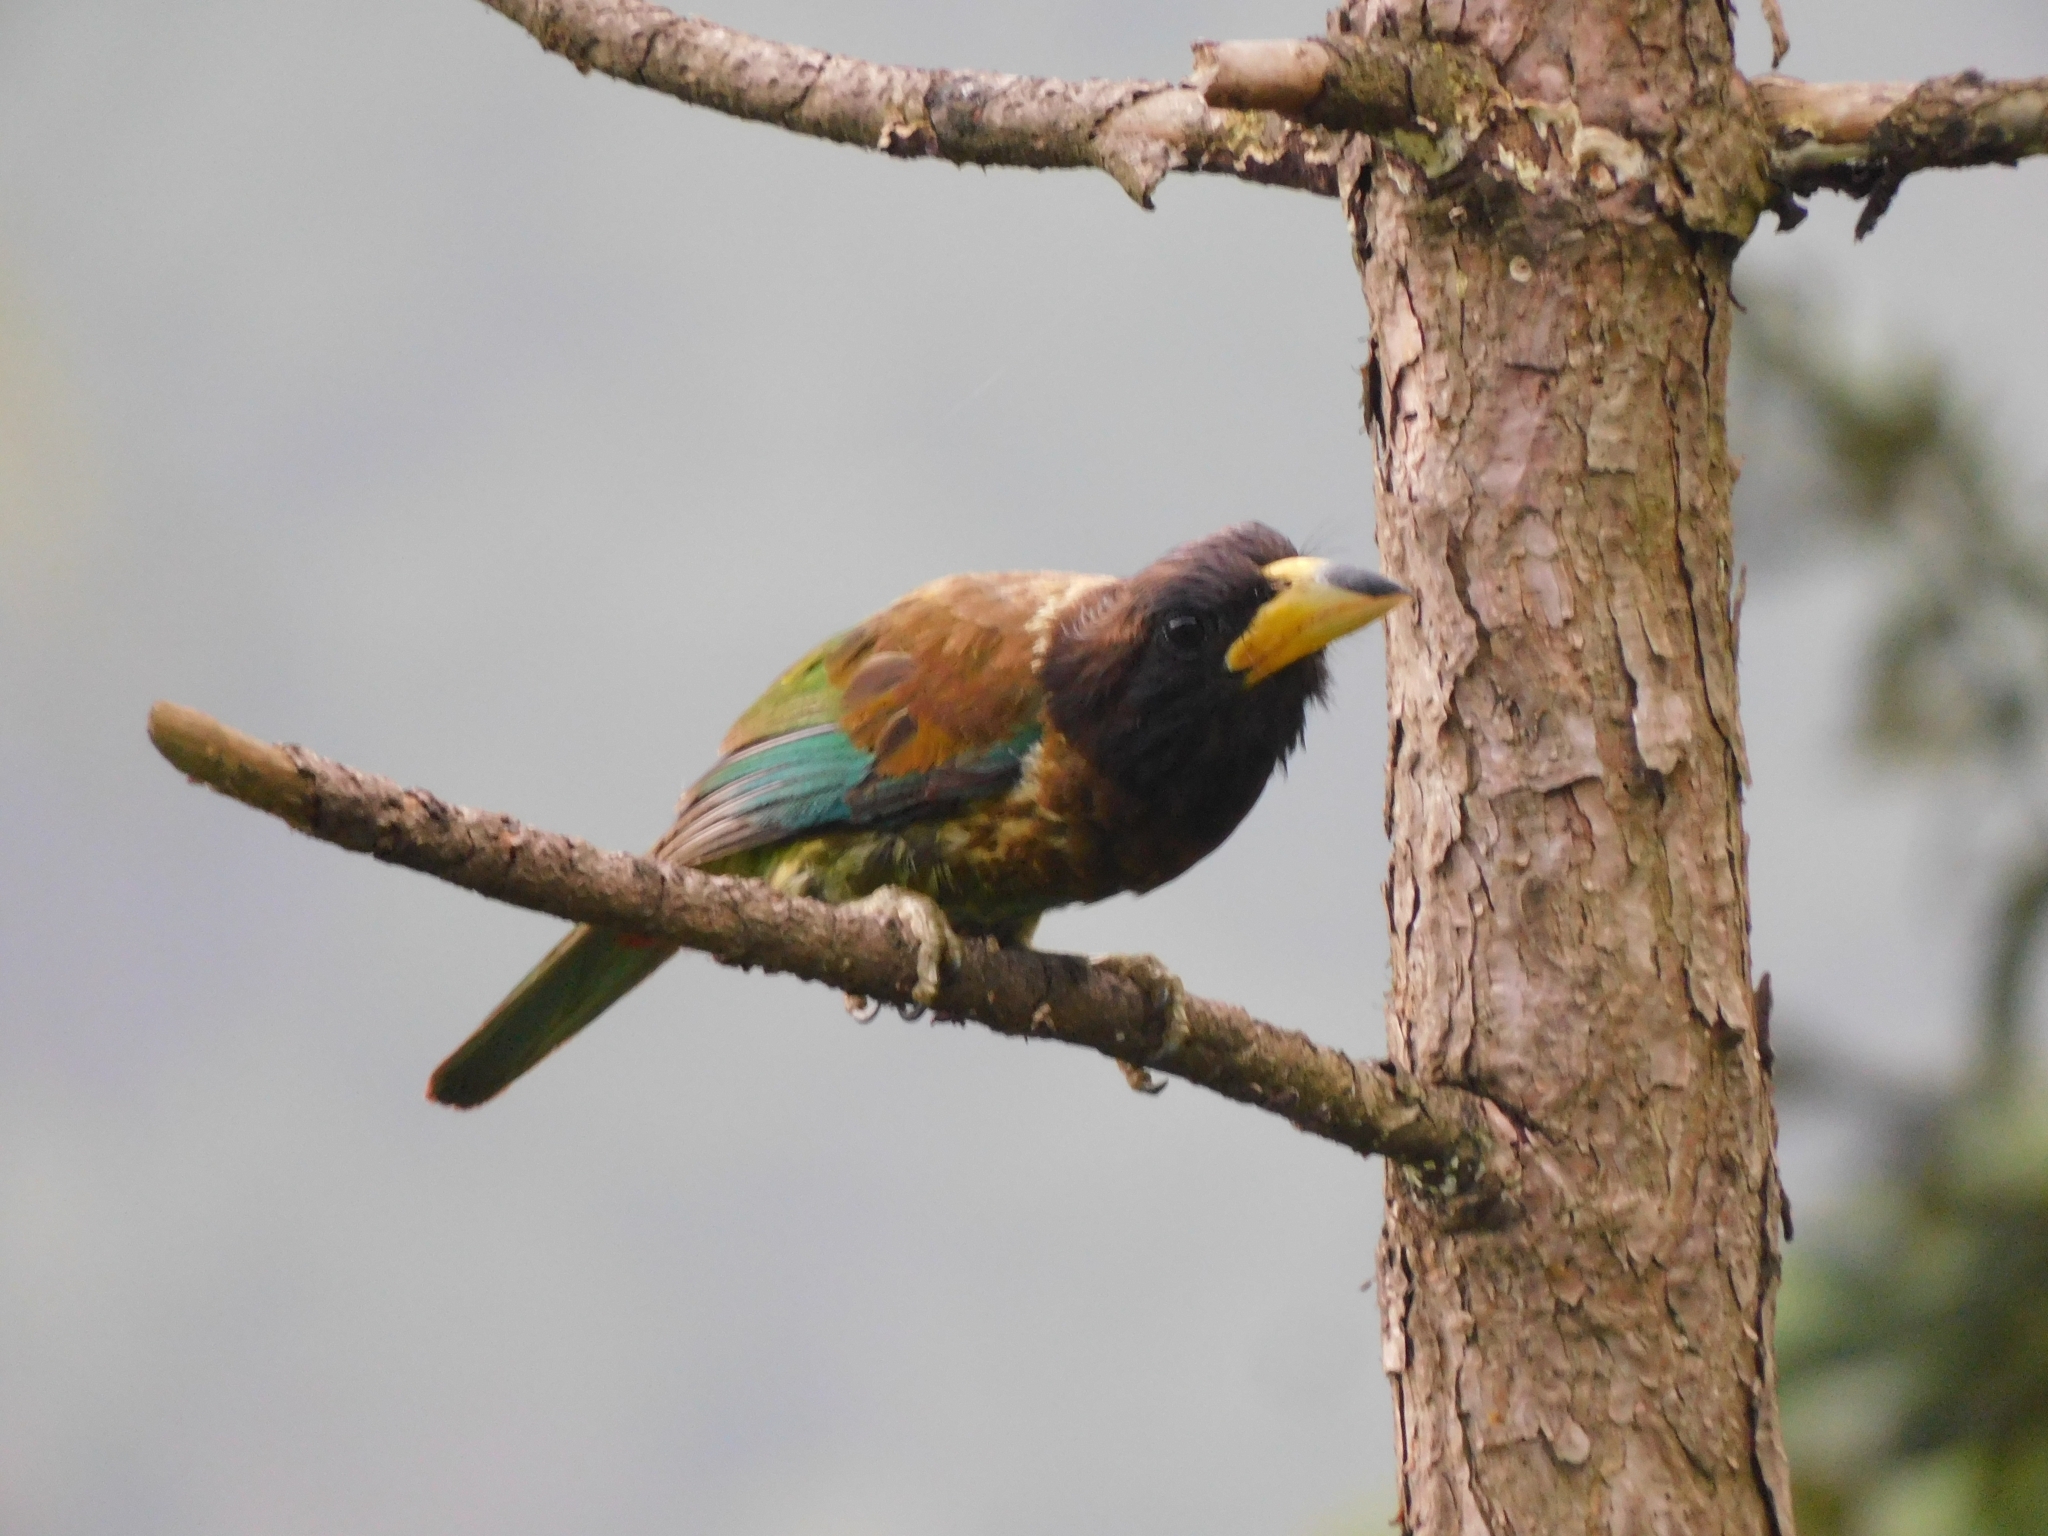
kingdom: Animalia
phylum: Chordata
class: Aves
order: Piciformes
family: Megalaimidae
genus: Psilopogon
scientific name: Psilopogon virens
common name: Great barbet
